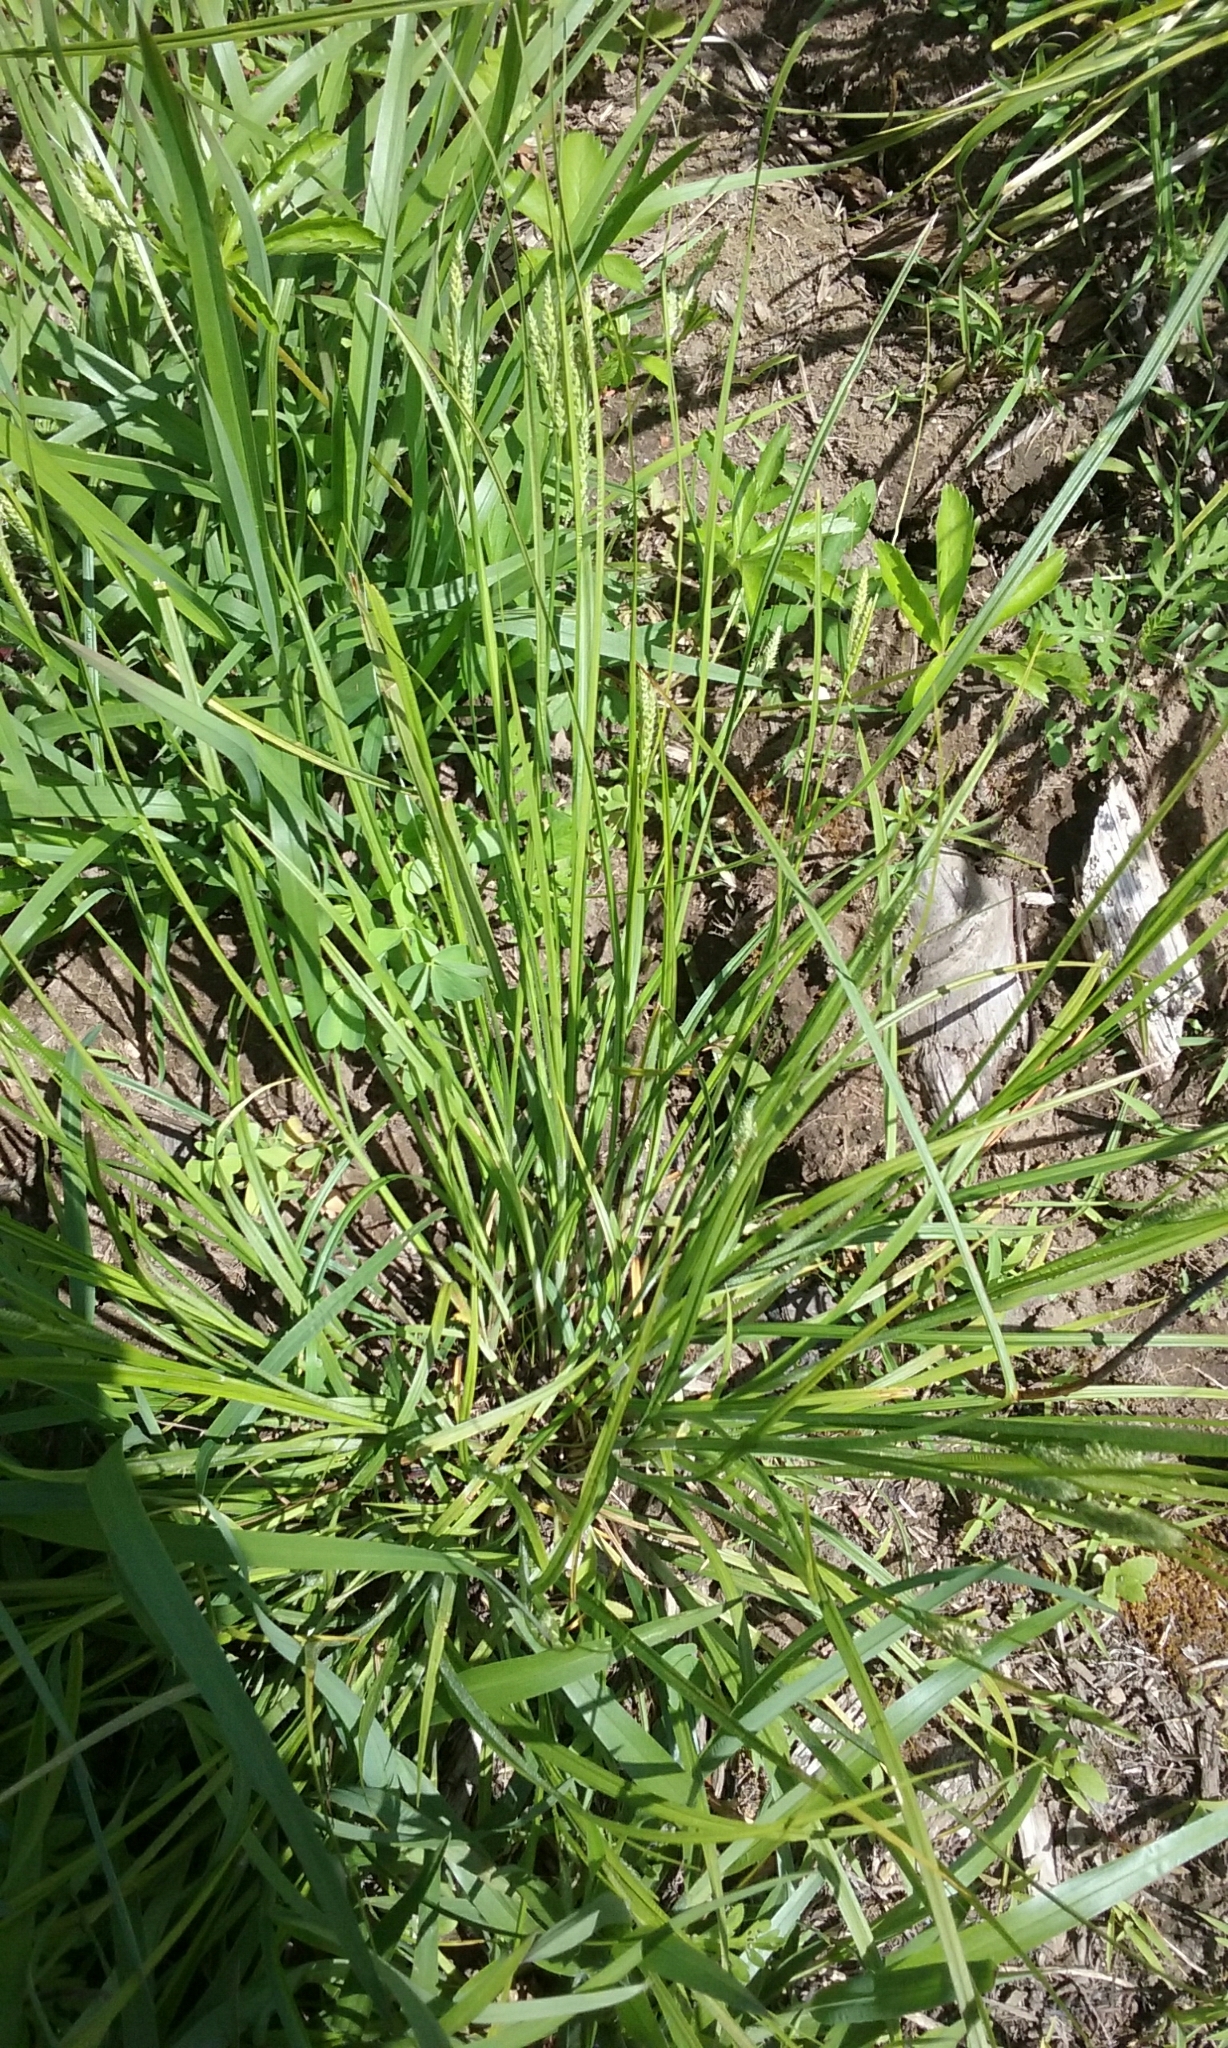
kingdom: Plantae
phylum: Tracheophyta
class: Liliopsida
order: Poales
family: Cyperaceae
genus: Carex
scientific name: Carex virescens
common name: Ribbed sedge
